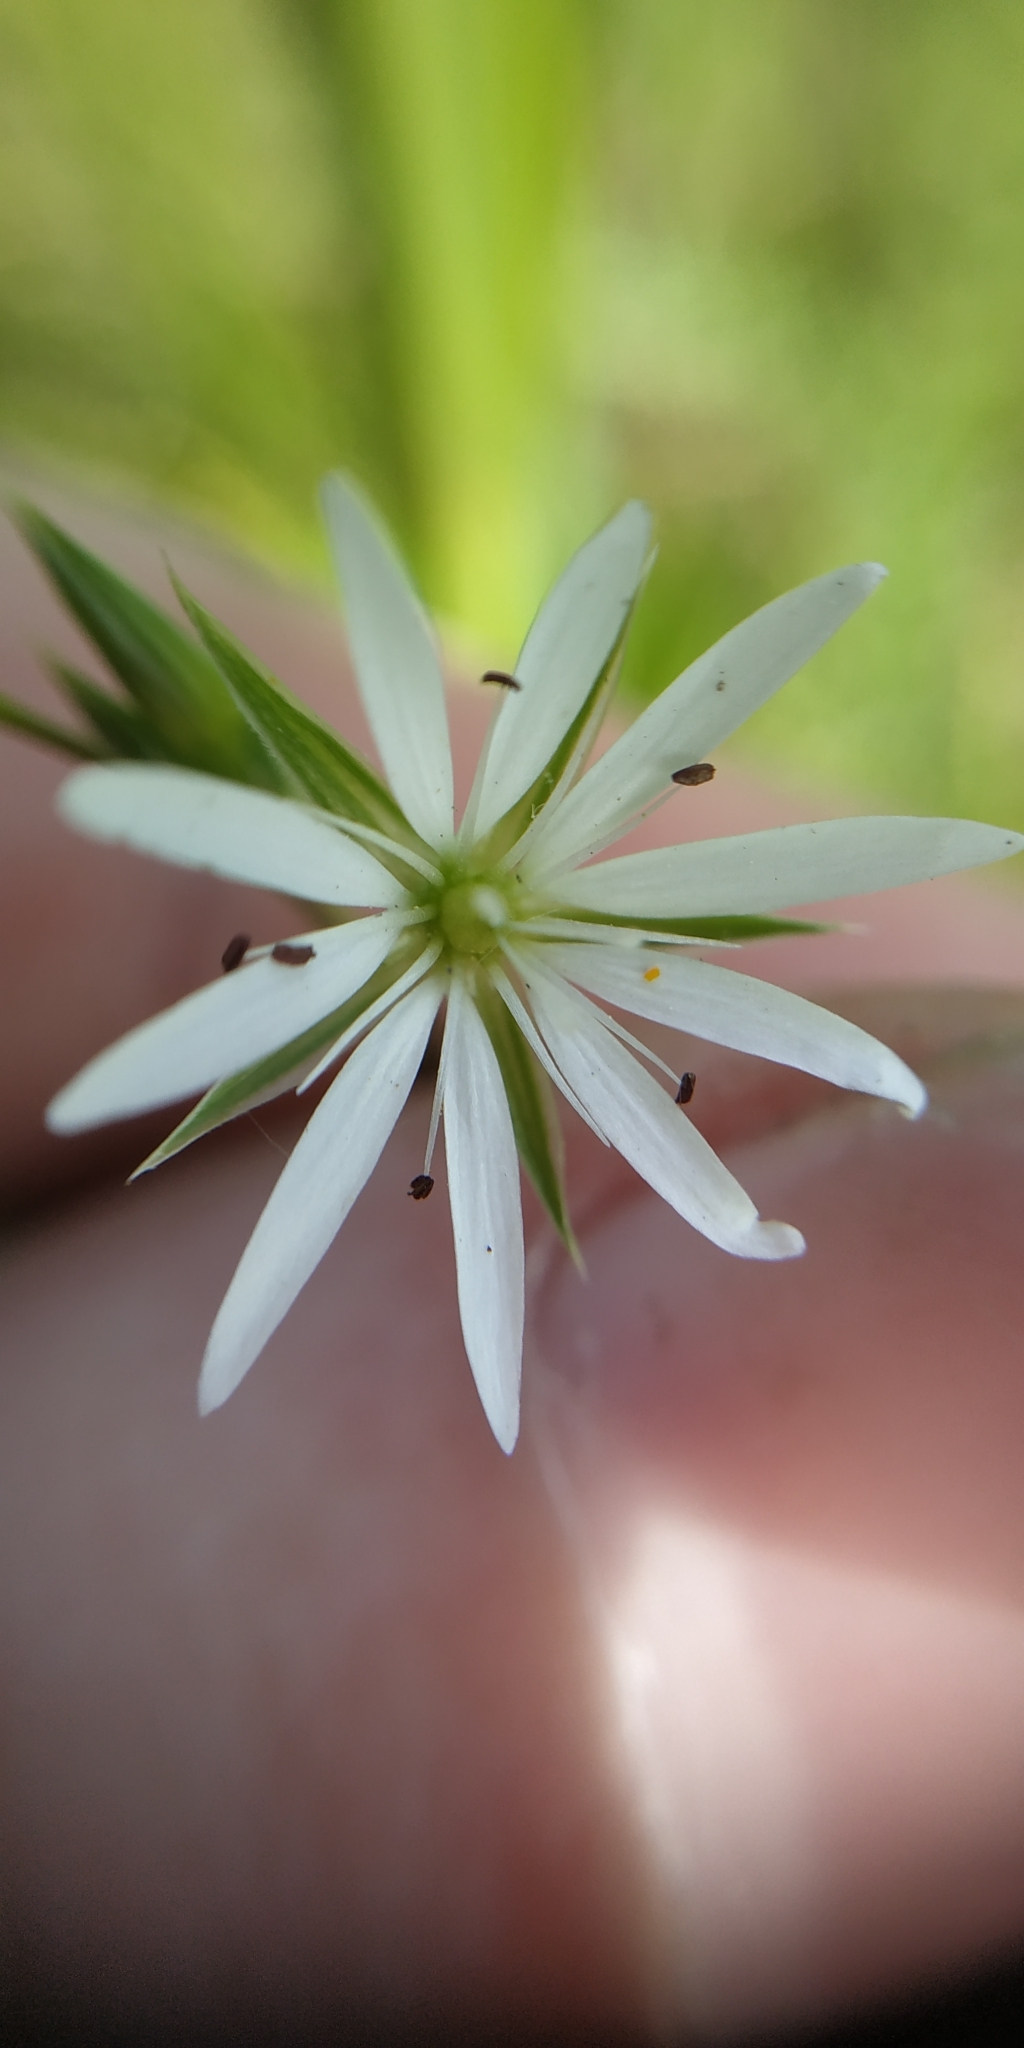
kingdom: Plantae
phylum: Tracheophyta
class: Magnoliopsida
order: Caryophyllales
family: Caryophyllaceae
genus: Stellaria
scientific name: Stellaria graminea
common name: Grass-like starwort
